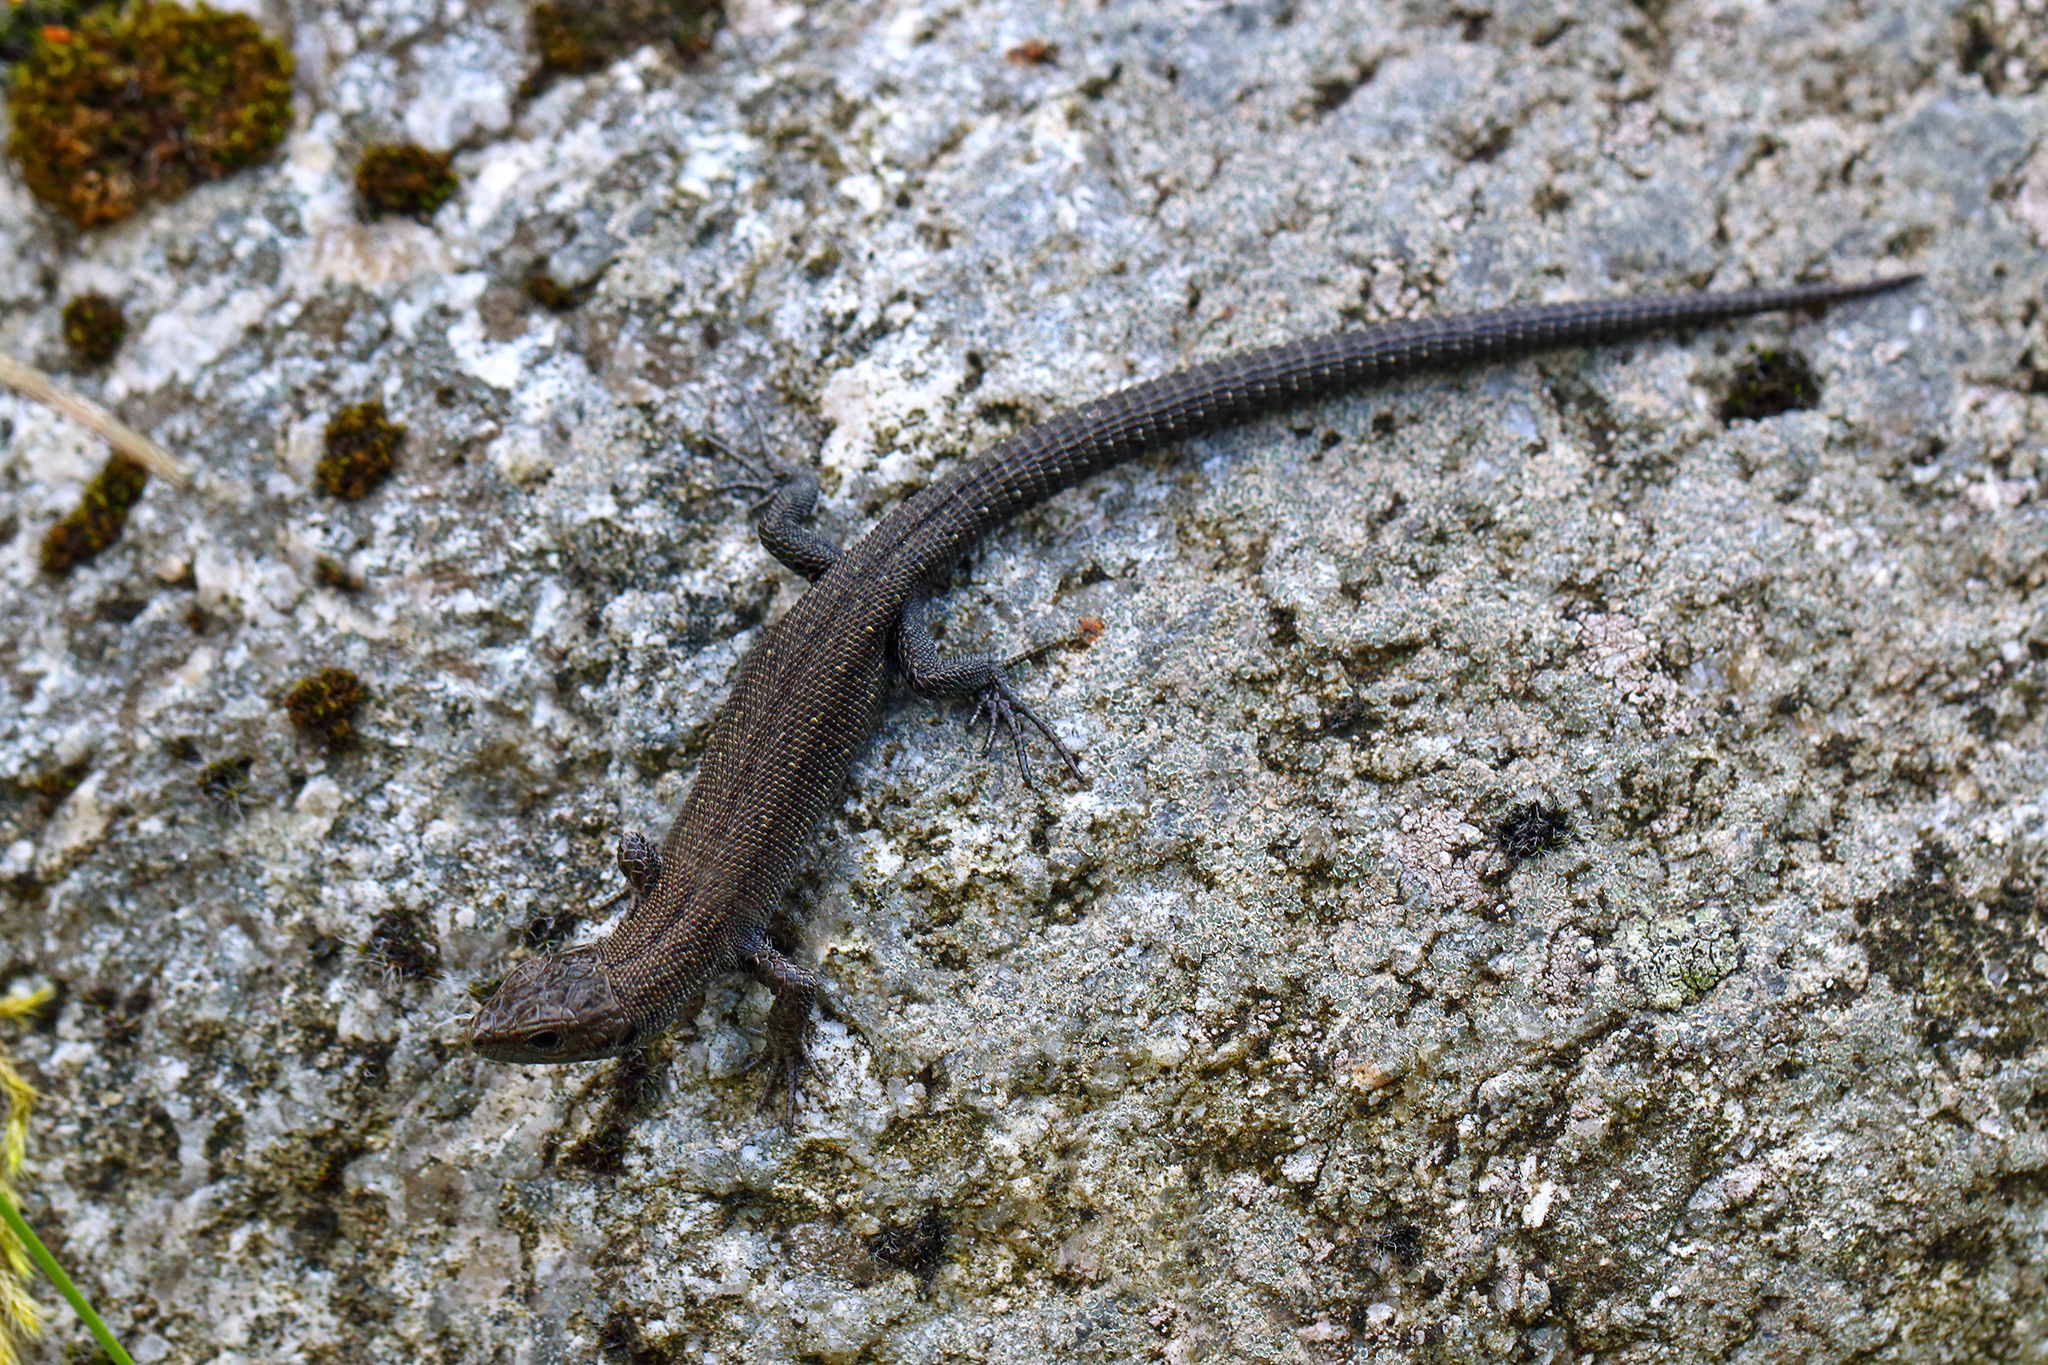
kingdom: Animalia
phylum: Chordata
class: Squamata
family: Lacertidae
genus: Zootoca
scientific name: Zootoca vivipara
